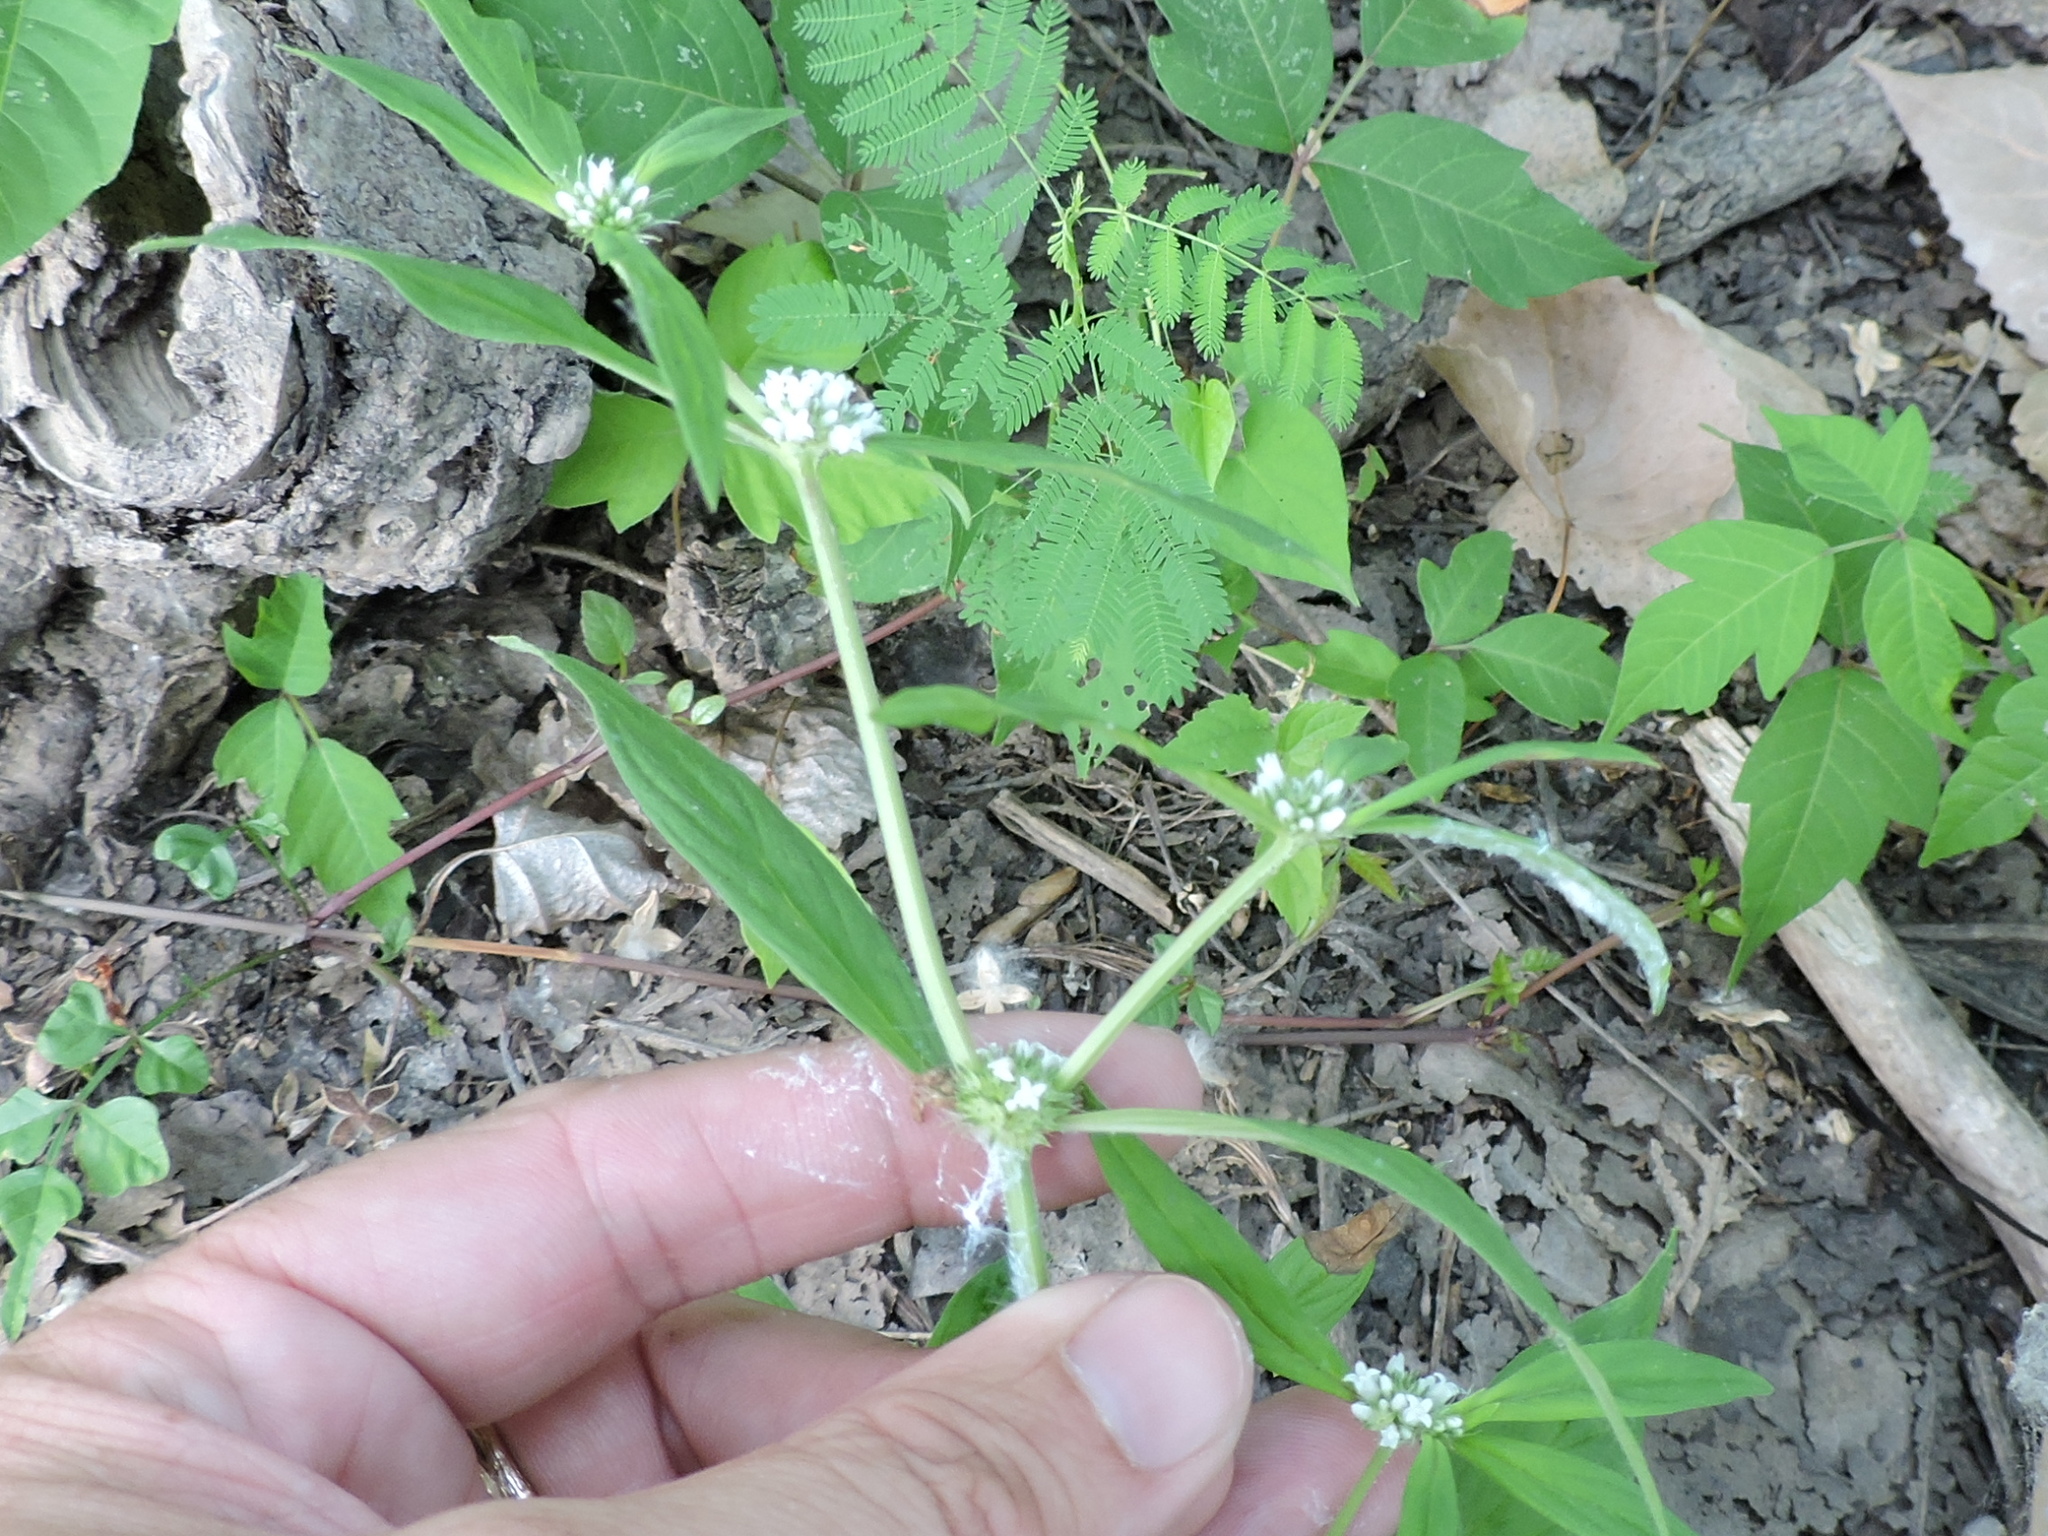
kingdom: Plantae
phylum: Tracheophyta
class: Magnoliopsida
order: Gentianales
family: Rubiaceae
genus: Spermacoce
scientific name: Spermacoce glabra
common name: Smooth buttonweed
